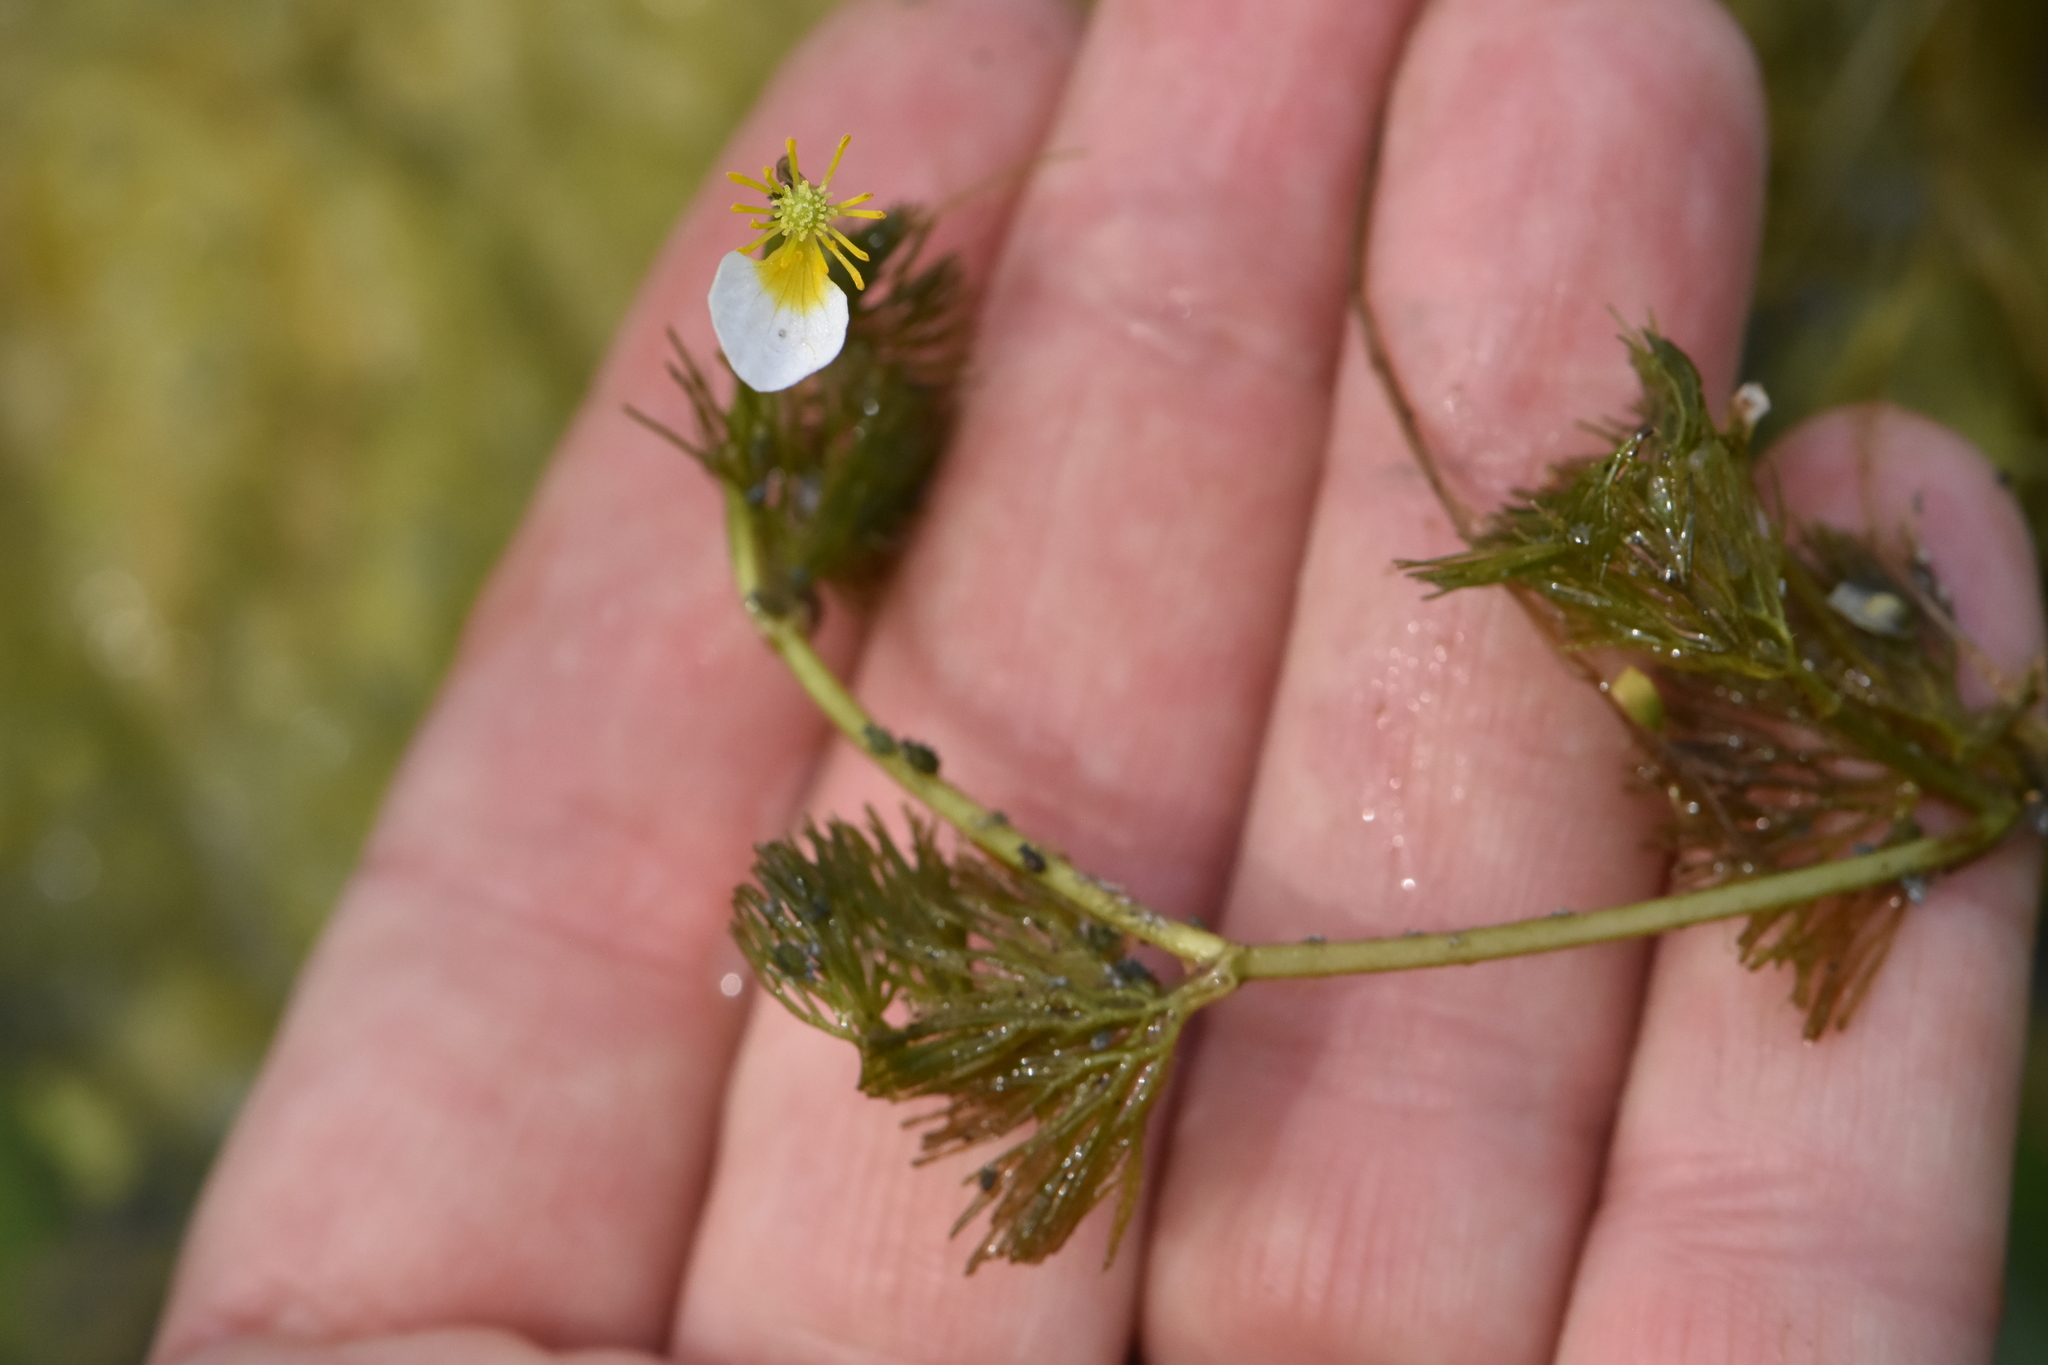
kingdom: Plantae
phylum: Tracheophyta
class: Magnoliopsida
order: Ranunculales
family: Ranunculaceae
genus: Ranunculus
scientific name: Ranunculus circinatus
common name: Fan-leaved water-crowfoot
